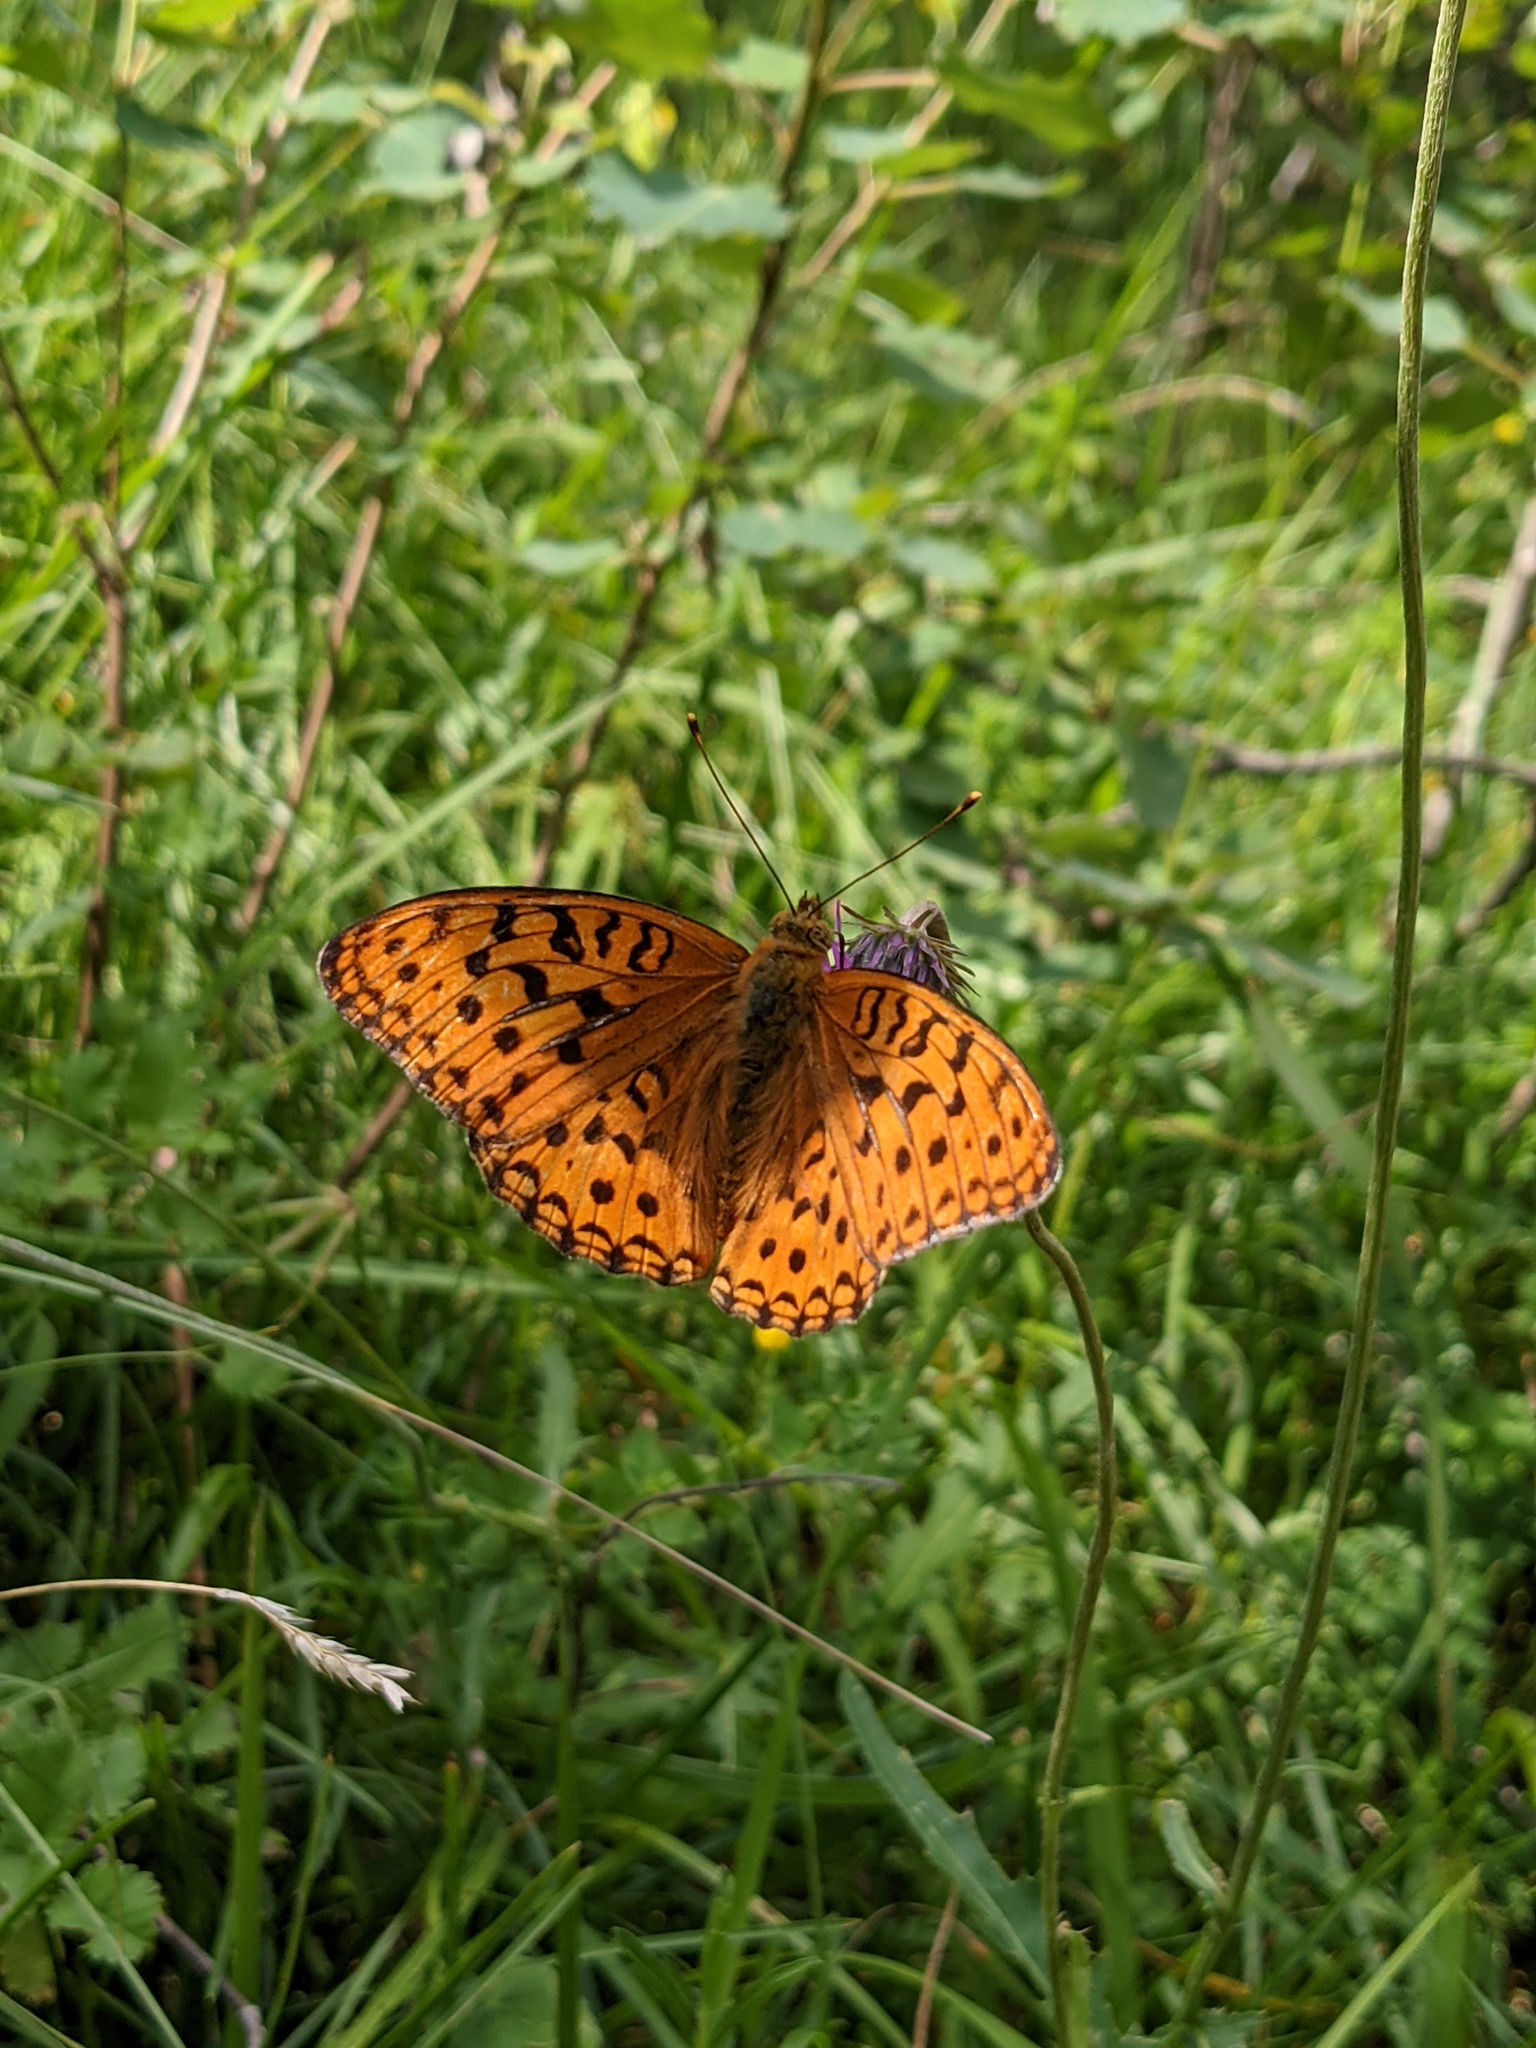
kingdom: Animalia
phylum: Arthropoda
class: Insecta
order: Lepidoptera
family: Nymphalidae
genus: Fabriciana
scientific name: Fabriciana adippe
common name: High brown fritillary
